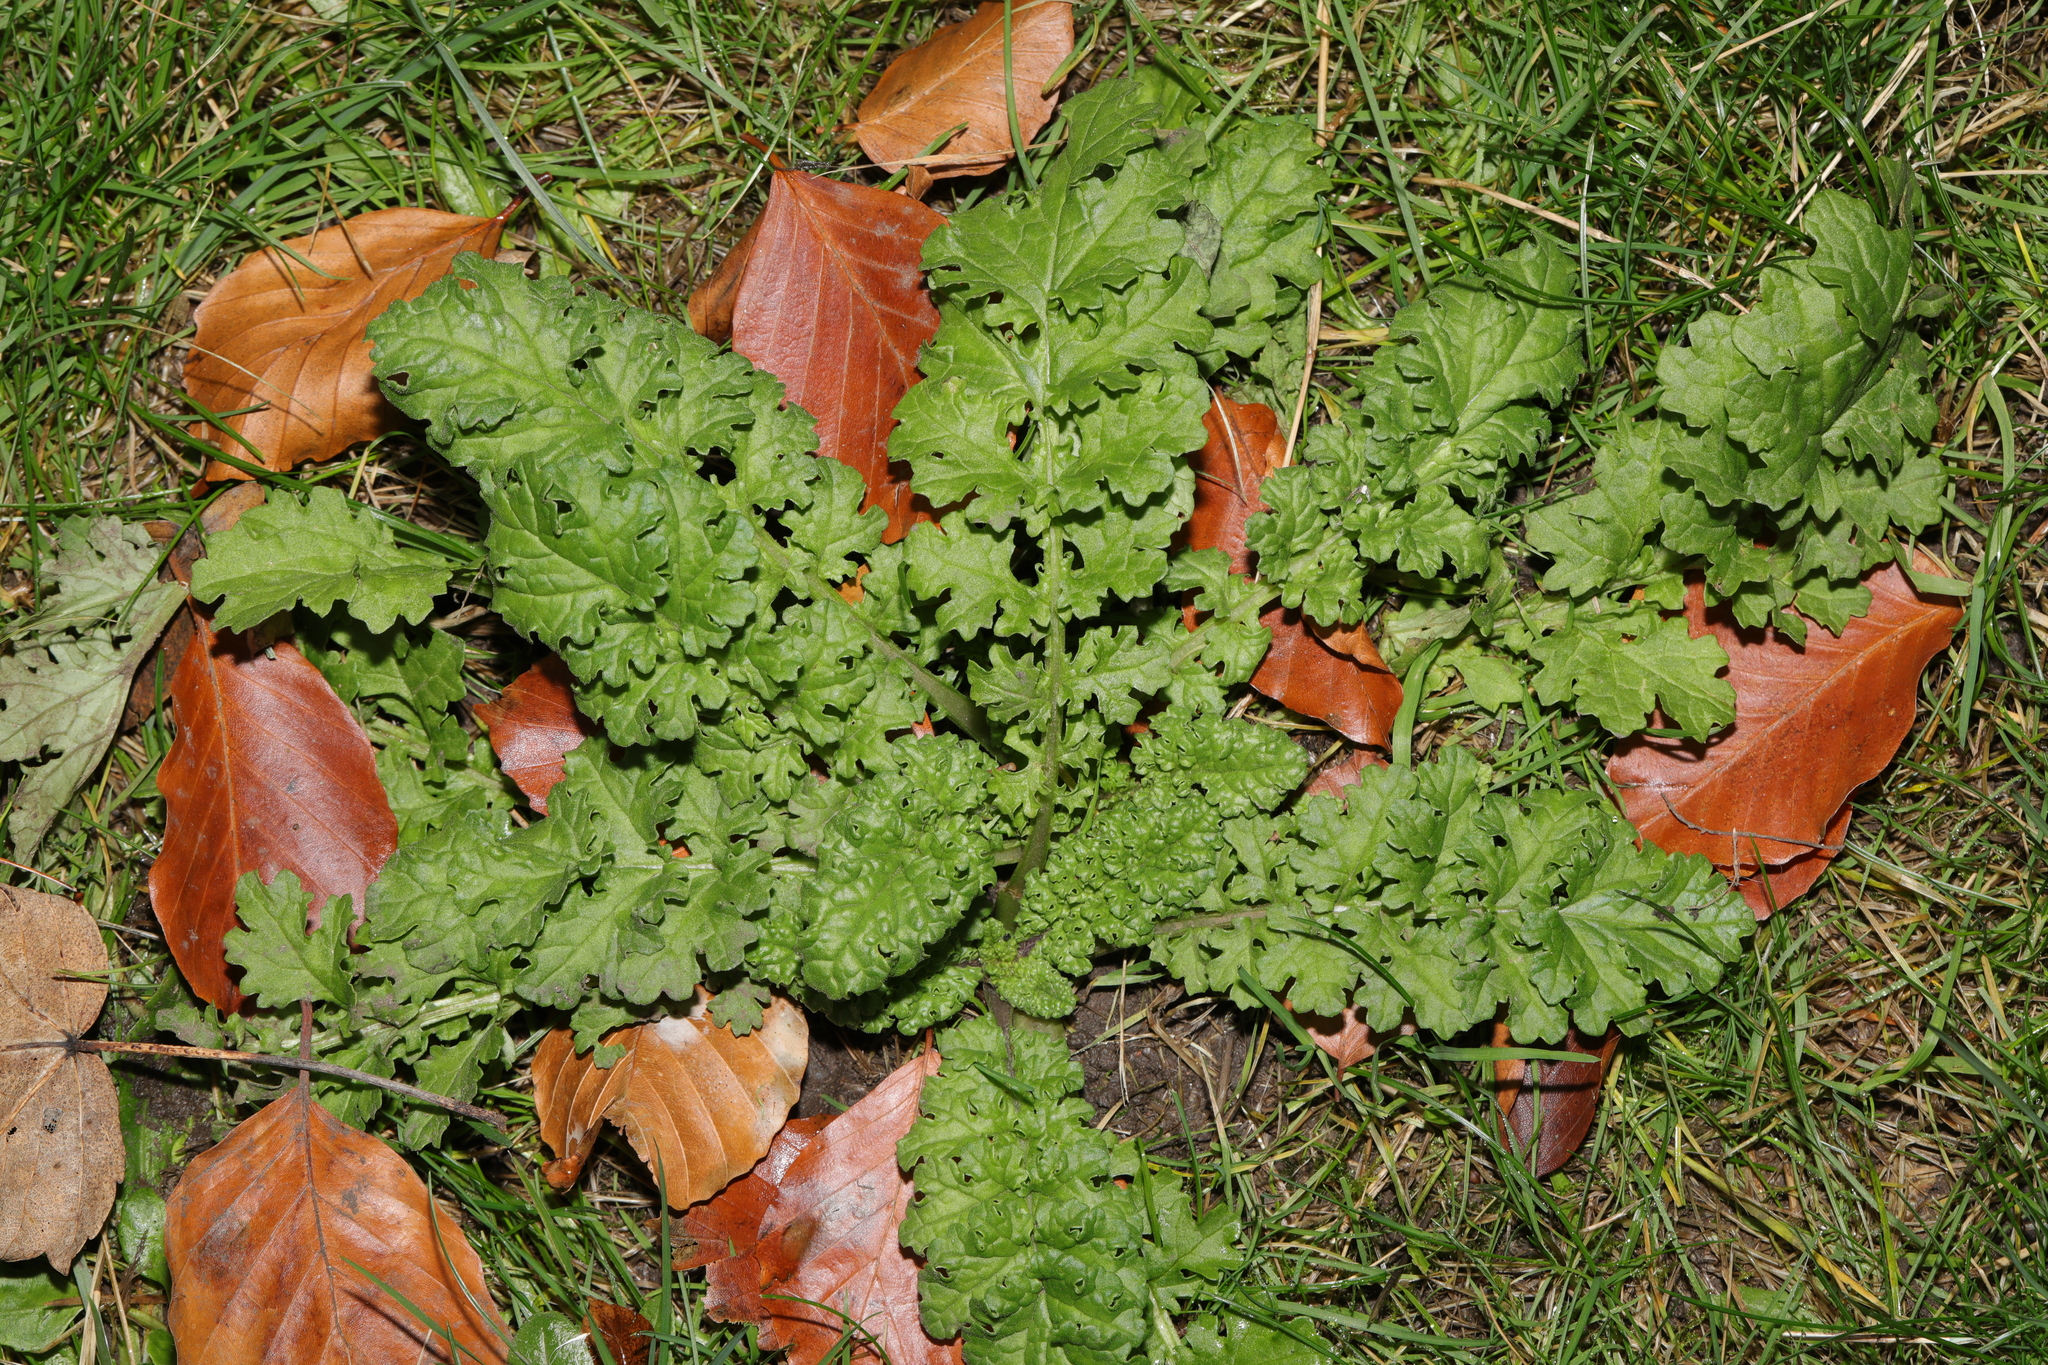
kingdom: Plantae
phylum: Tracheophyta
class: Magnoliopsida
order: Asterales
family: Asteraceae
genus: Jacobaea
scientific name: Jacobaea vulgaris
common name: Stinking willie
